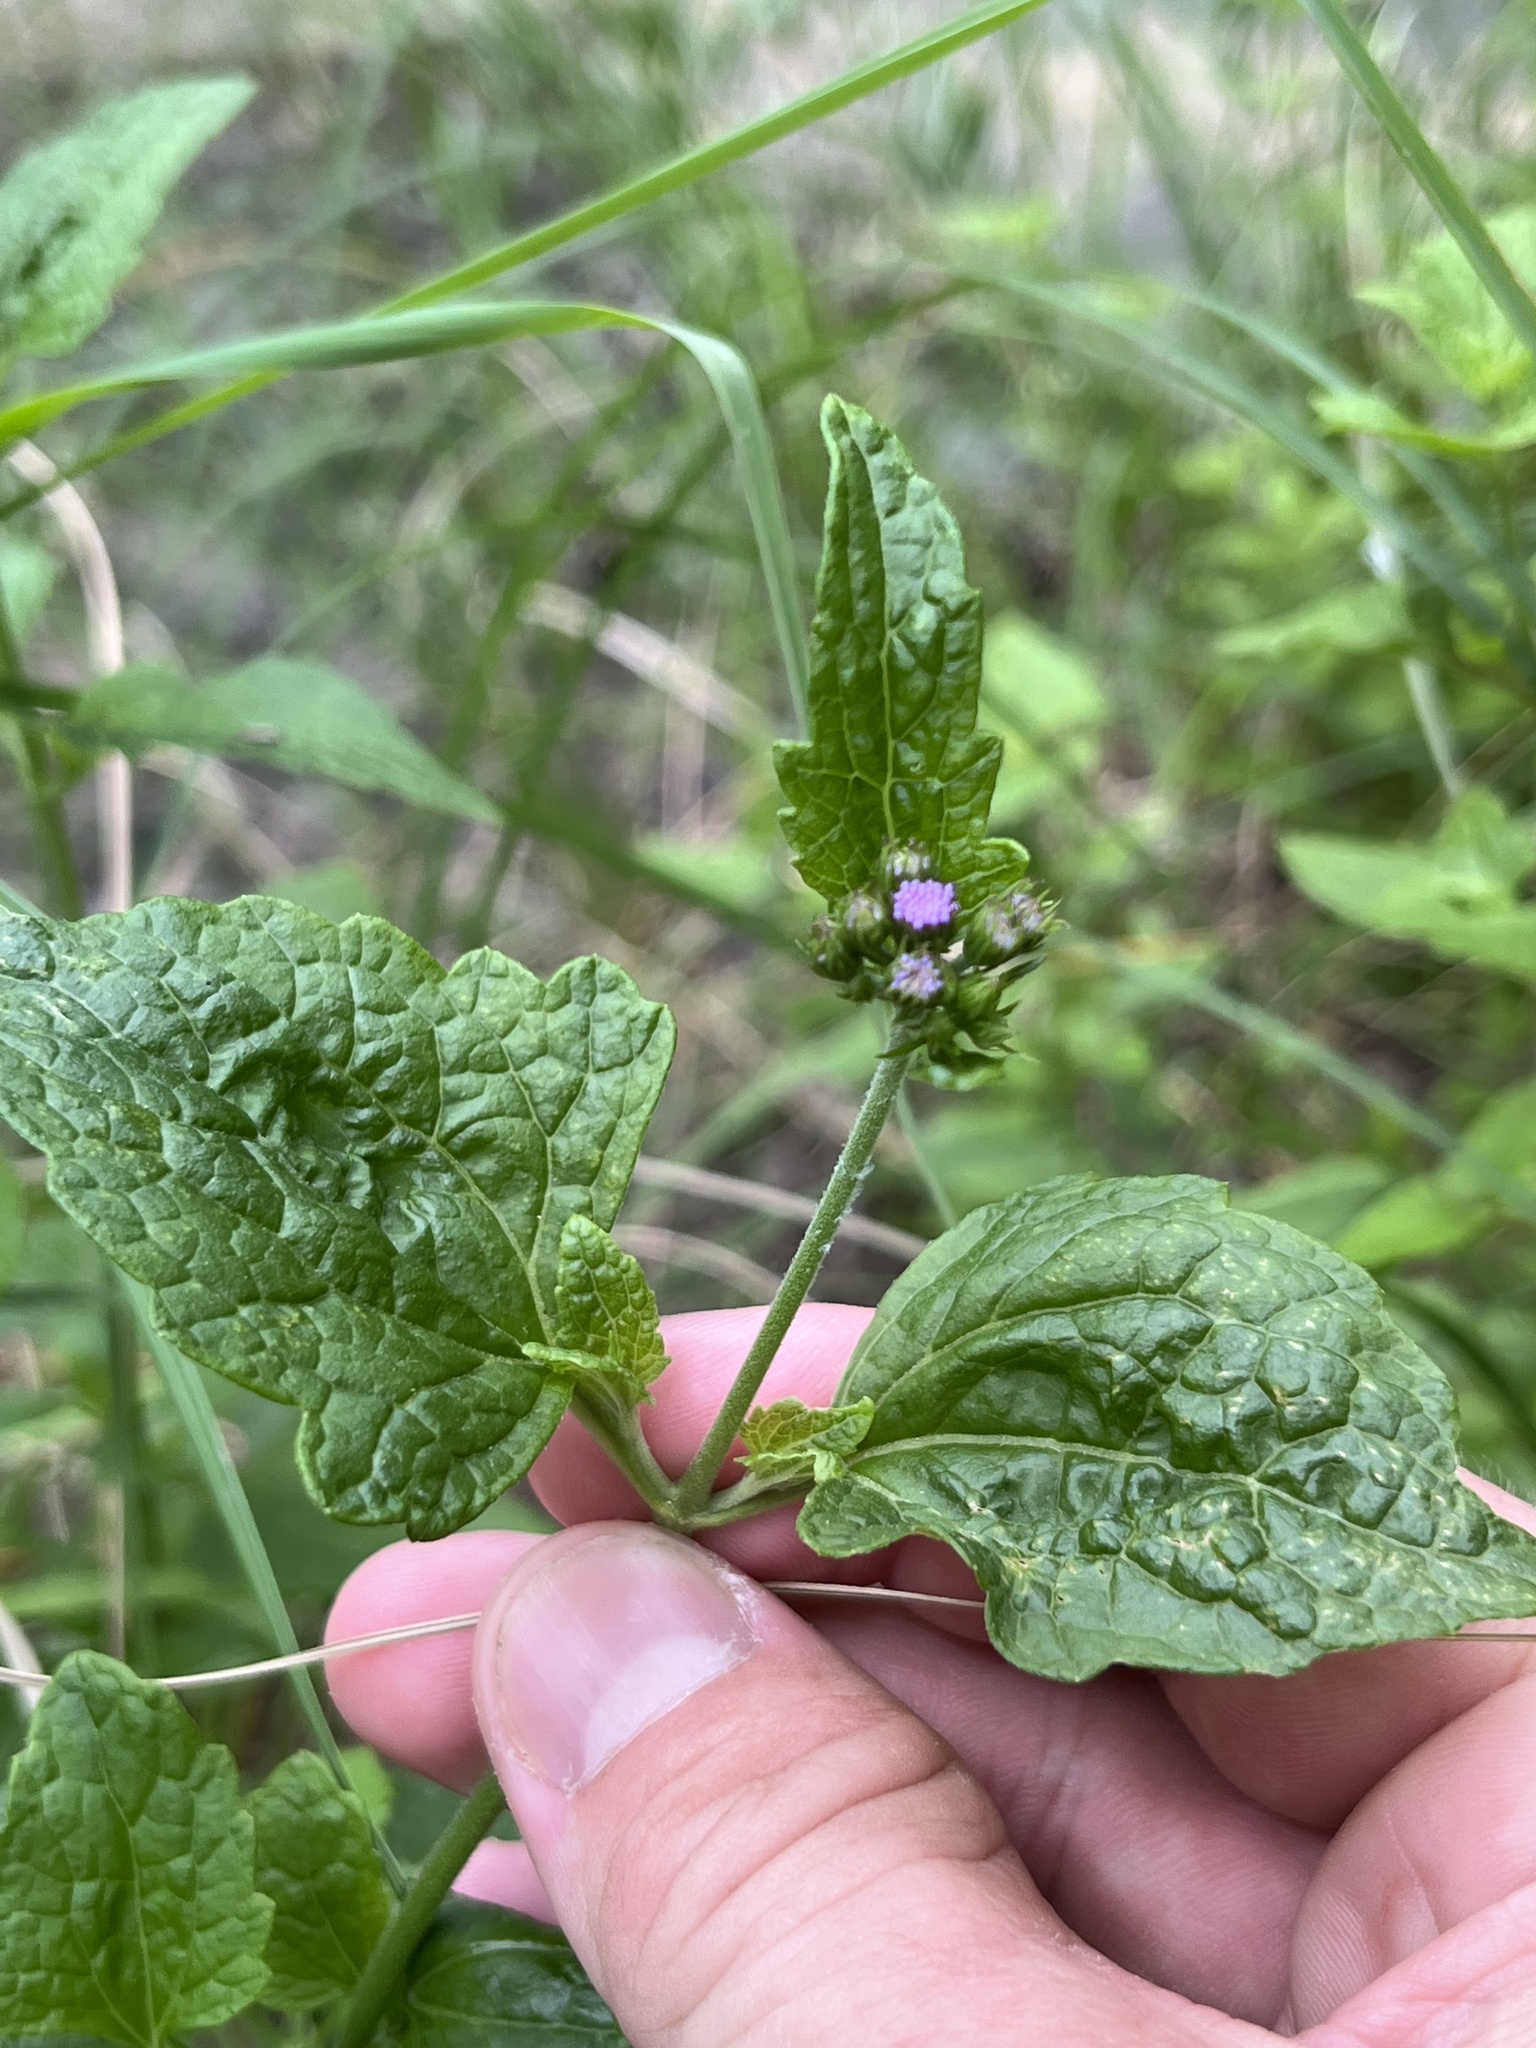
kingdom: Plantae
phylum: Tracheophyta
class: Magnoliopsida
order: Asterales
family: Asteraceae
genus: Conoclinium
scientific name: Conoclinium coelestinum
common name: Blue mistflower
